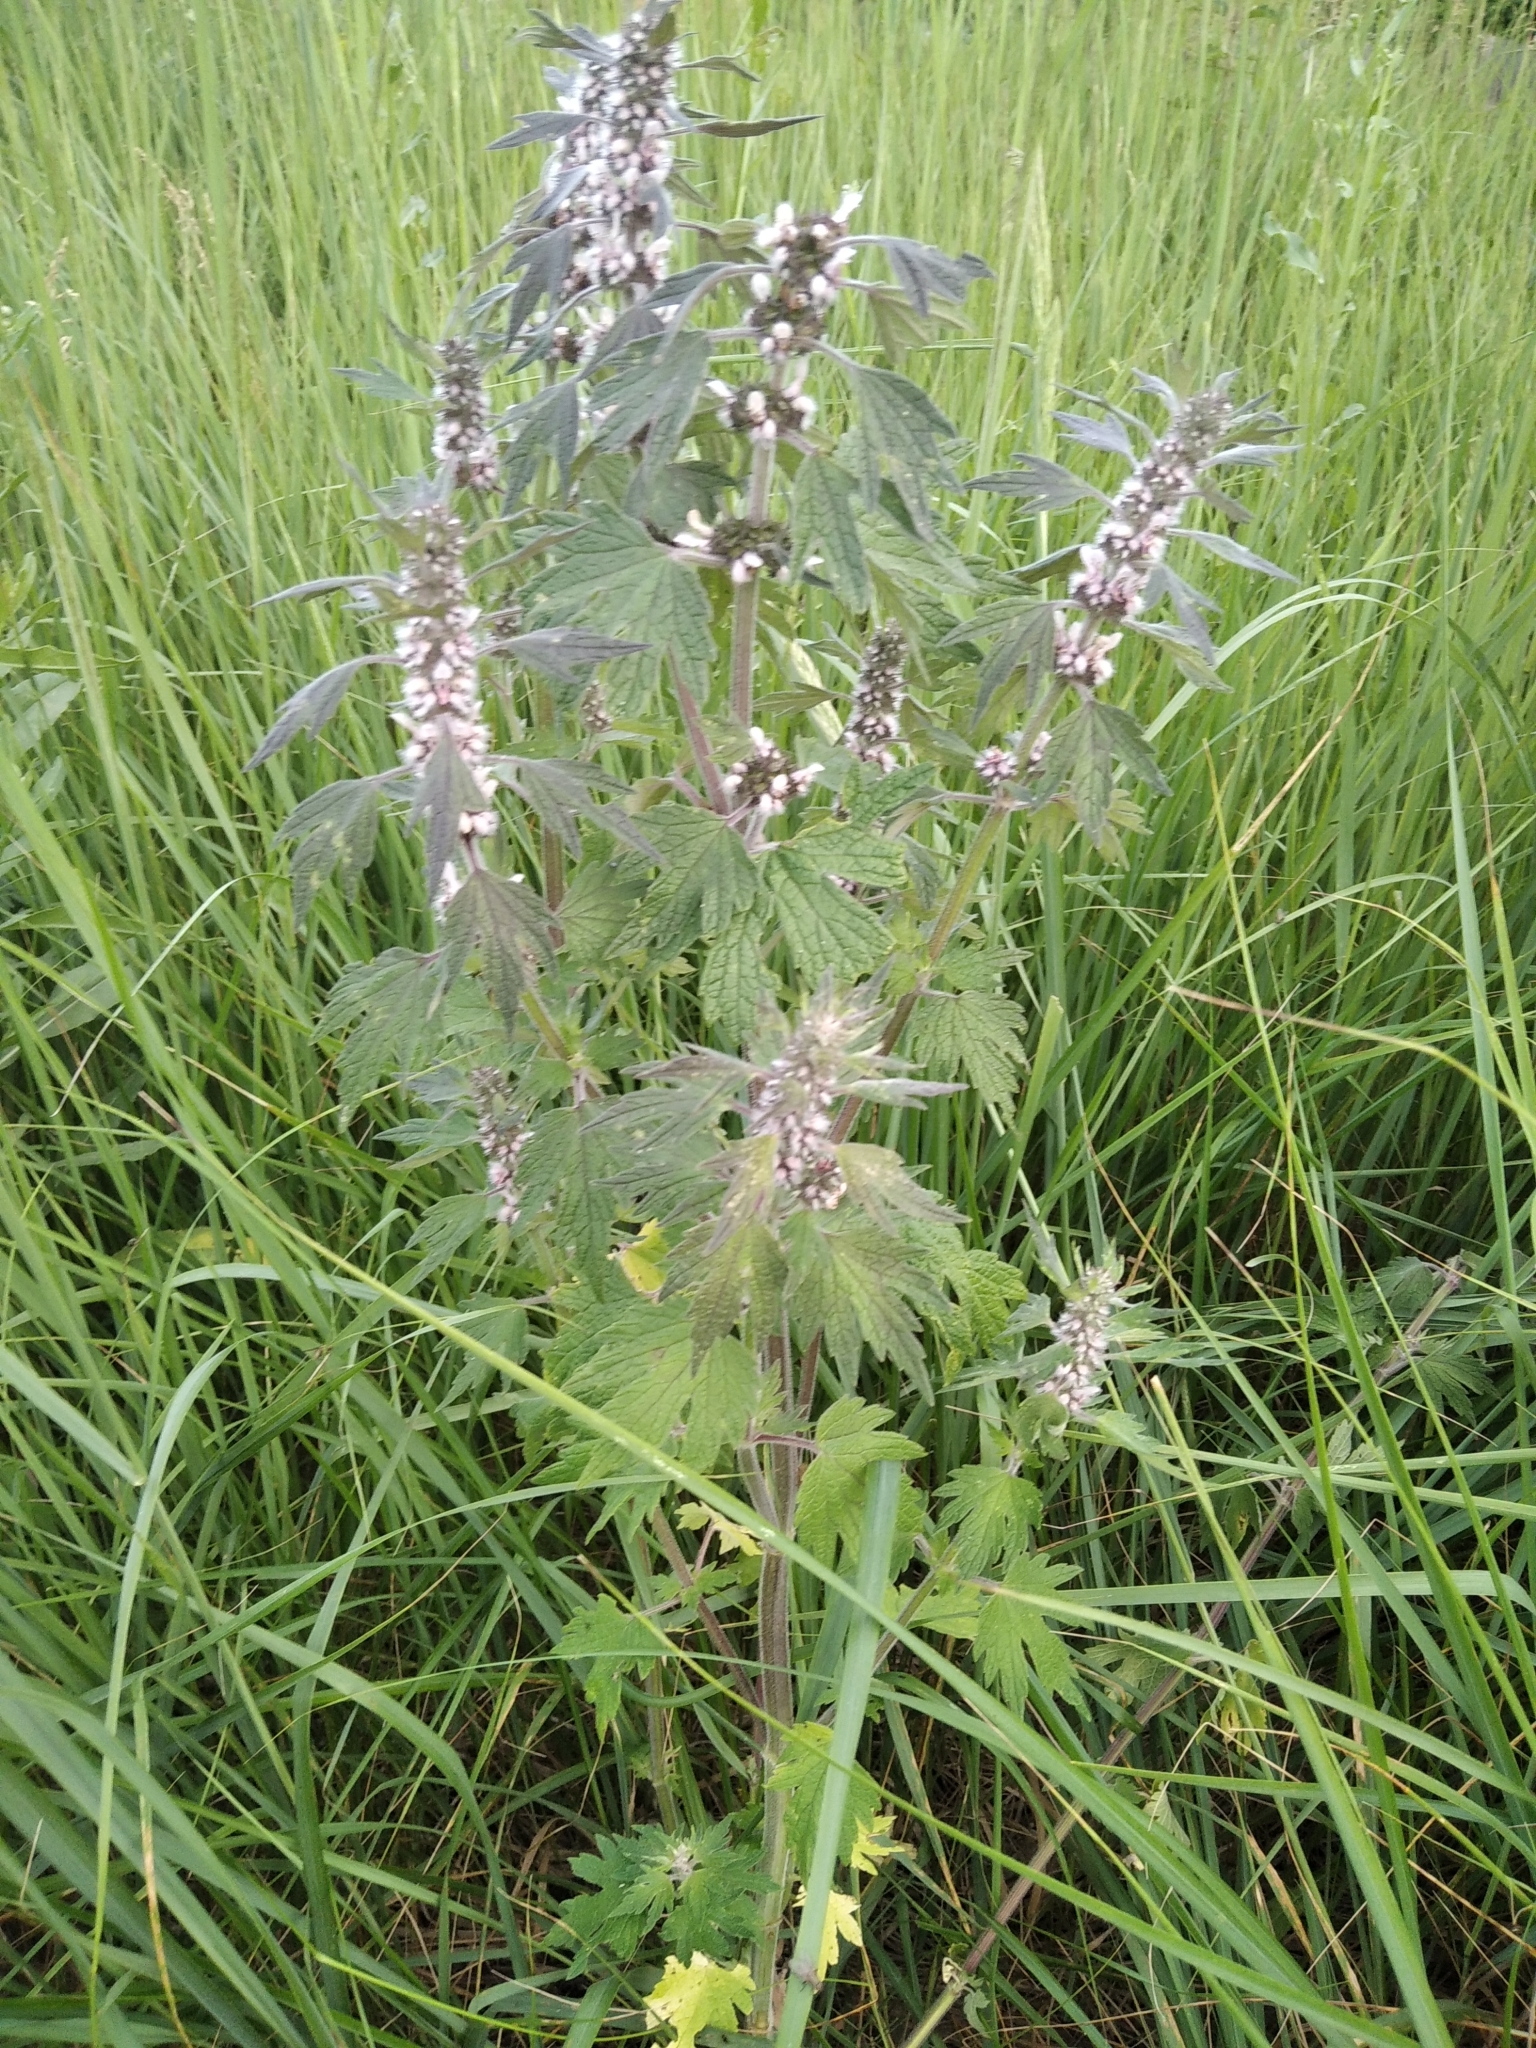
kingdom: Plantae
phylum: Tracheophyta
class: Magnoliopsida
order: Lamiales
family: Lamiaceae
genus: Leonurus
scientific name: Leonurus quinquelobatus
